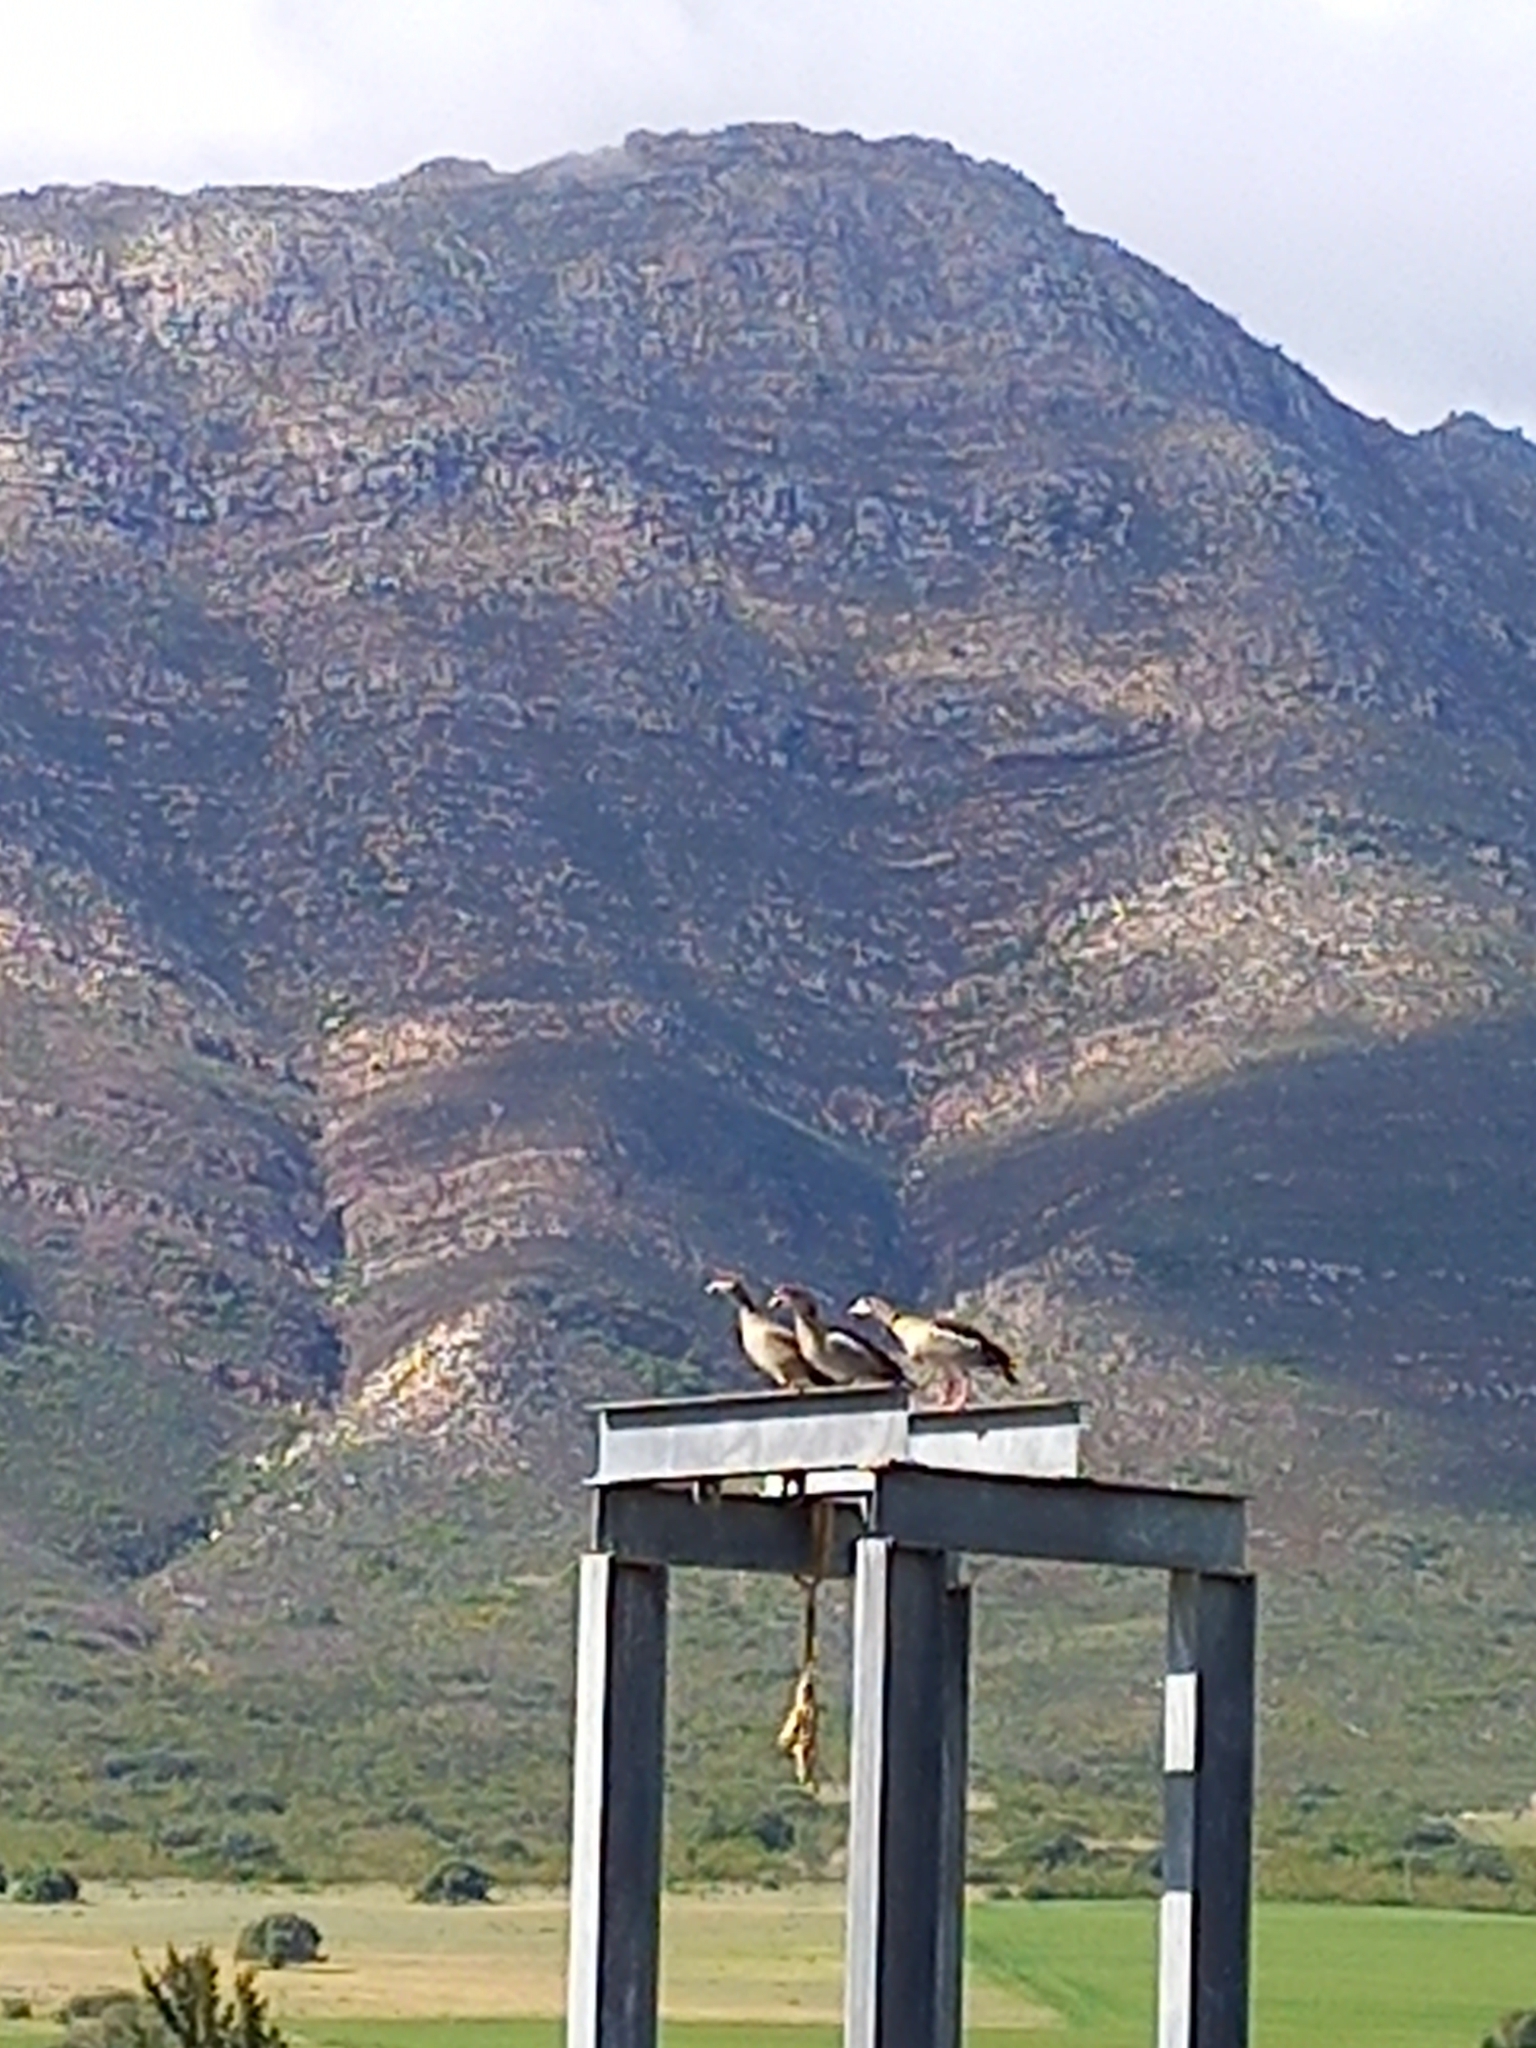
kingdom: Animalia
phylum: Chordata
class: Aves
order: Anseriformes
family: Anatidae
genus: Alopochen
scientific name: Alopochen aegyptiaca
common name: Egyptian goose
